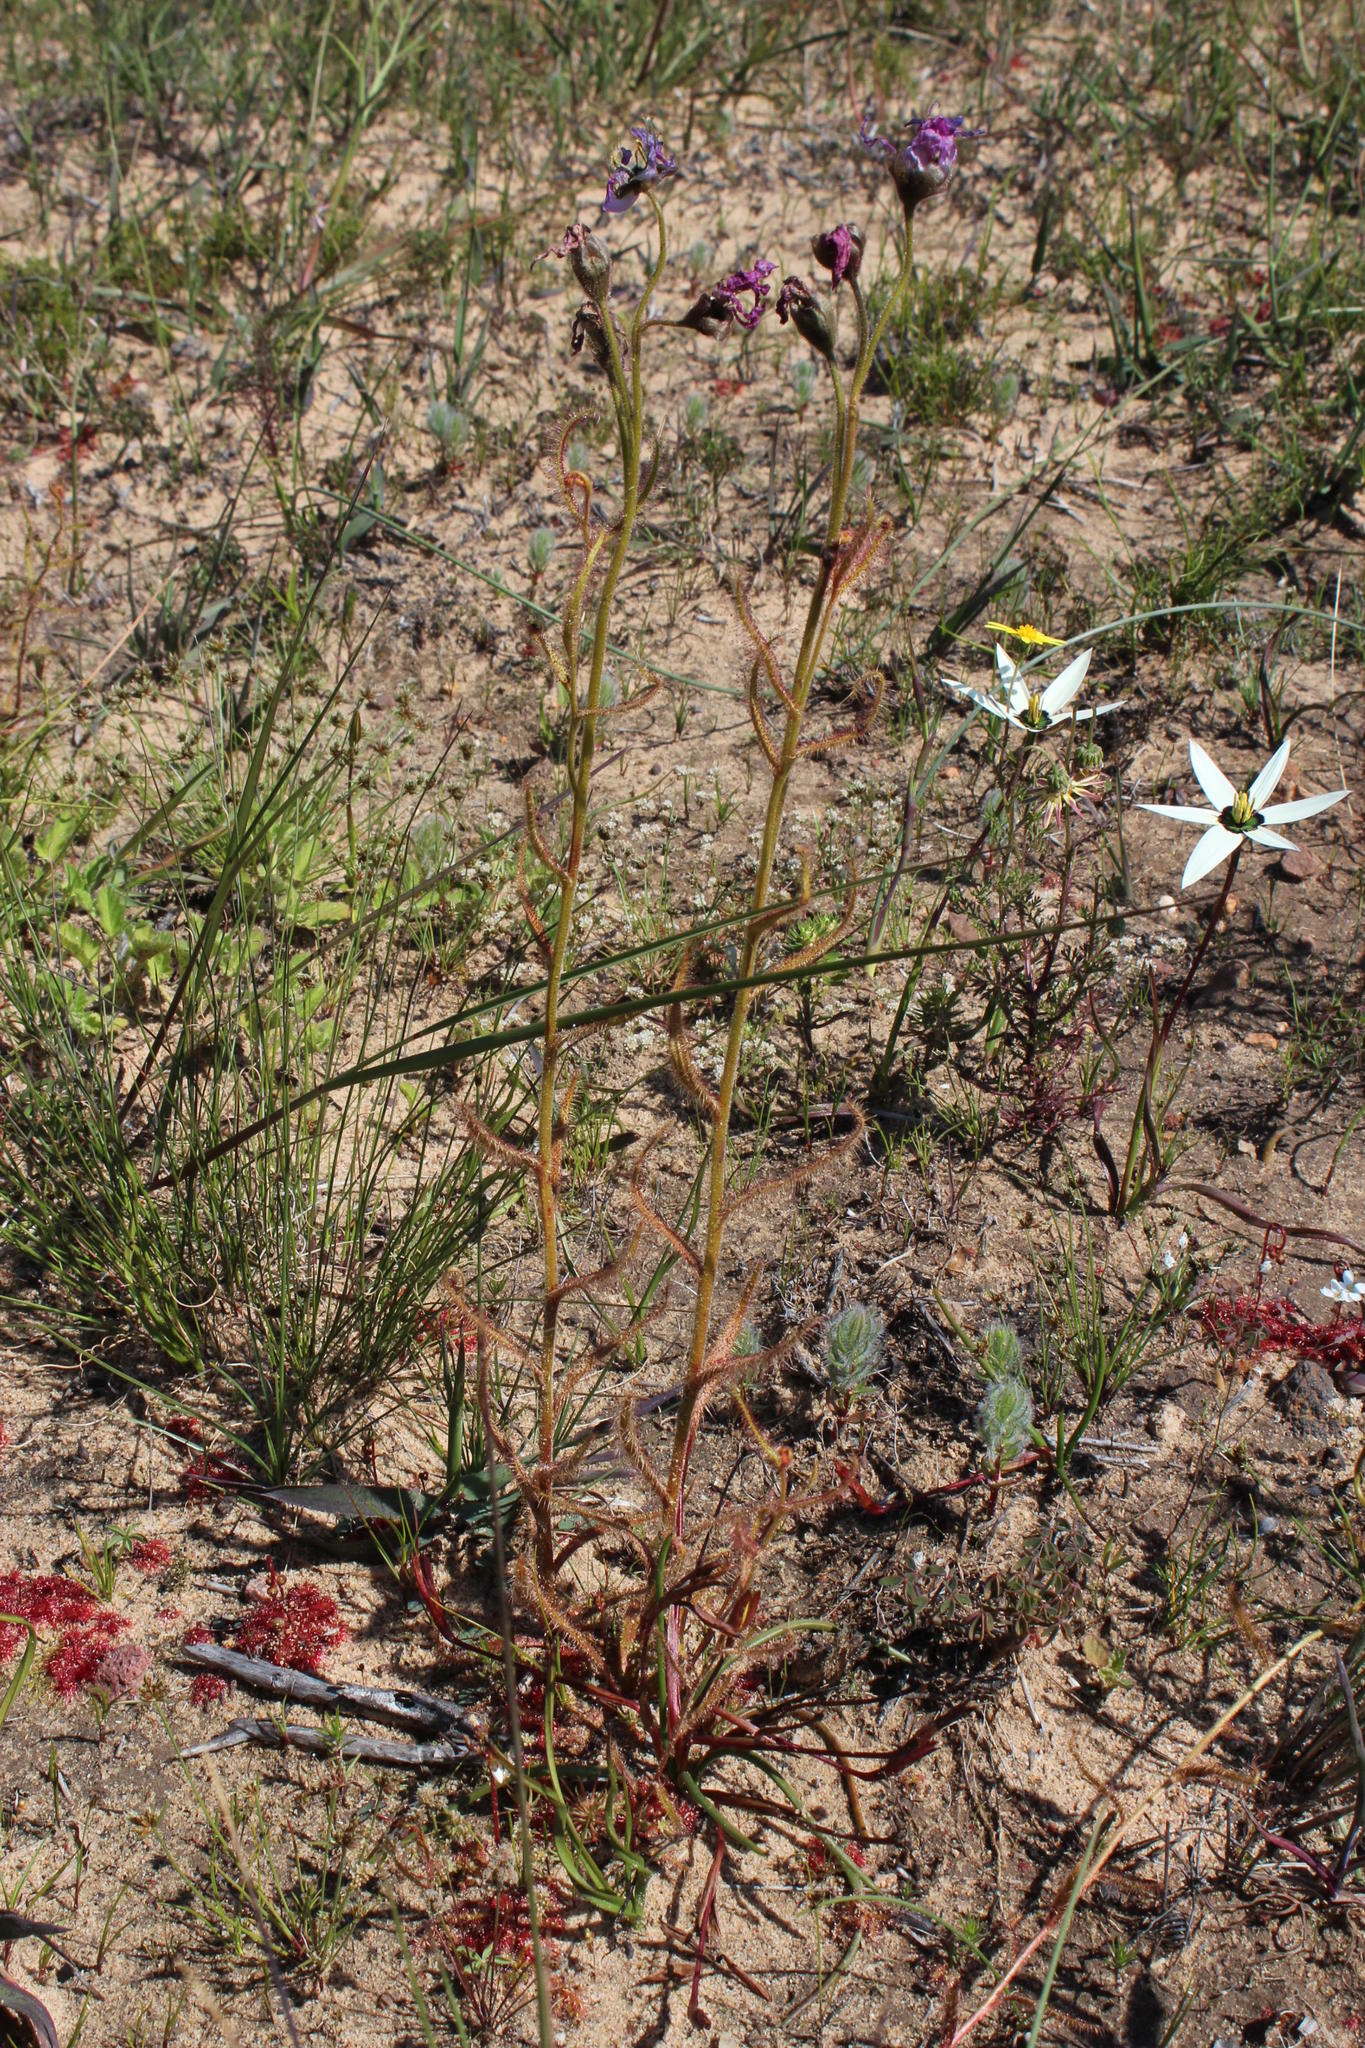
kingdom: Plantae
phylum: Tracheophyta
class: Magnoliopsida
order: Caryophyllales
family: Droseraceae
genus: Drosera
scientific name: Drosera cistiflora
